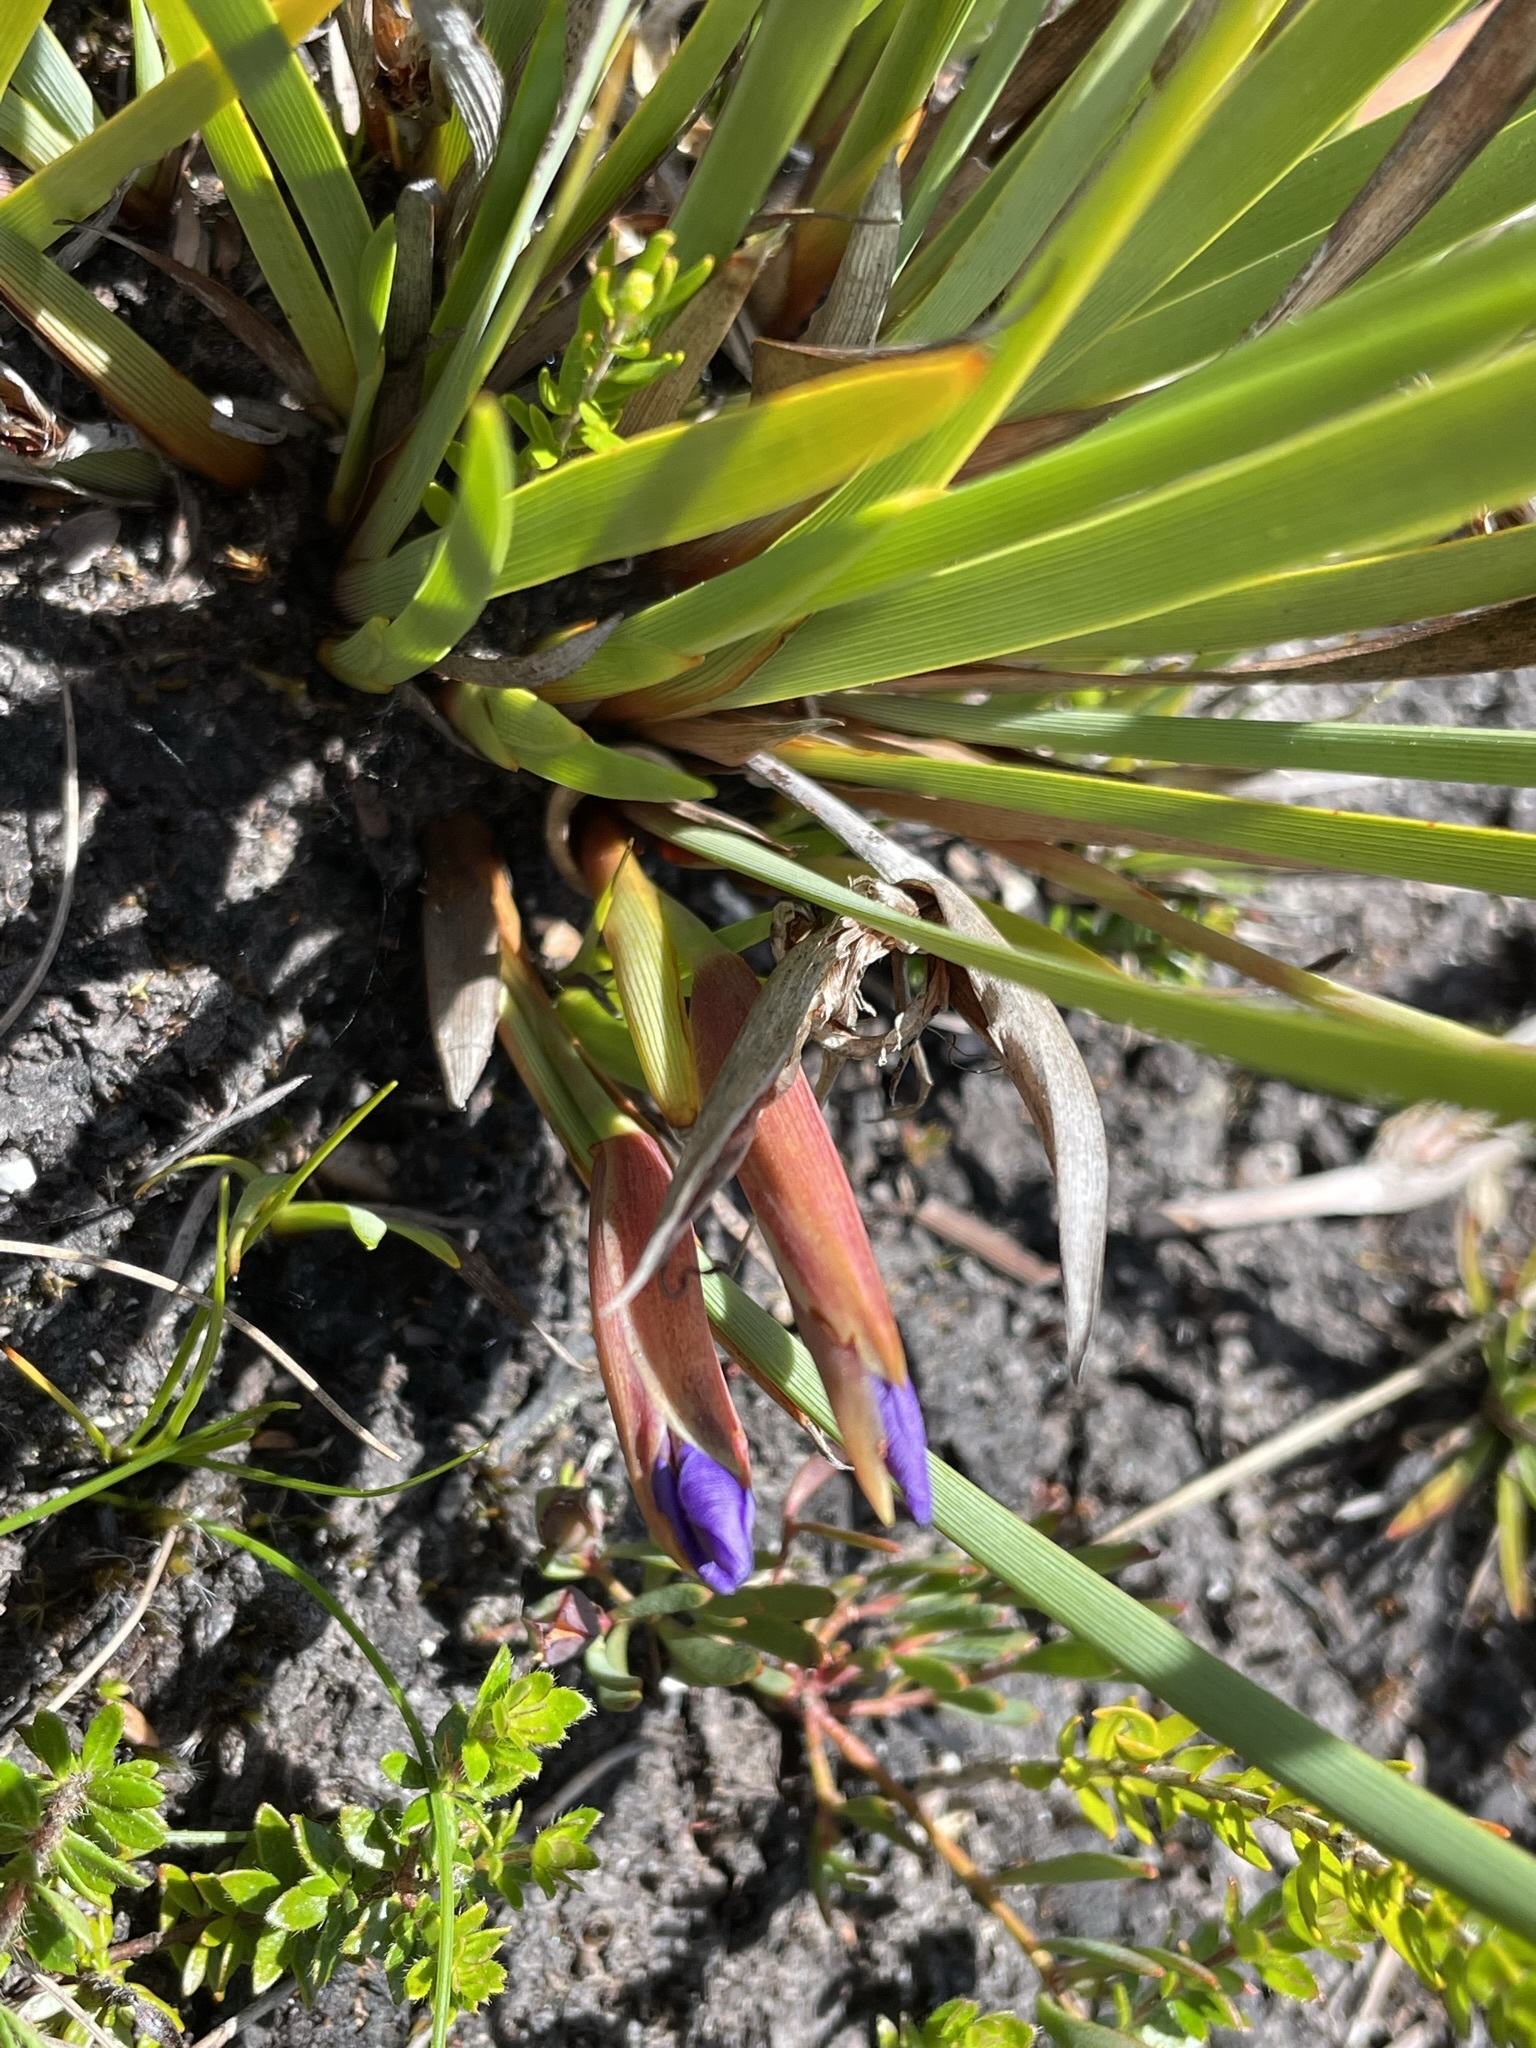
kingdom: Plantae
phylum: Tracheophyta
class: Liliopsida
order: Asparagales
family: Iridaceae
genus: Patersonia
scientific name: Patersonia fragilis
